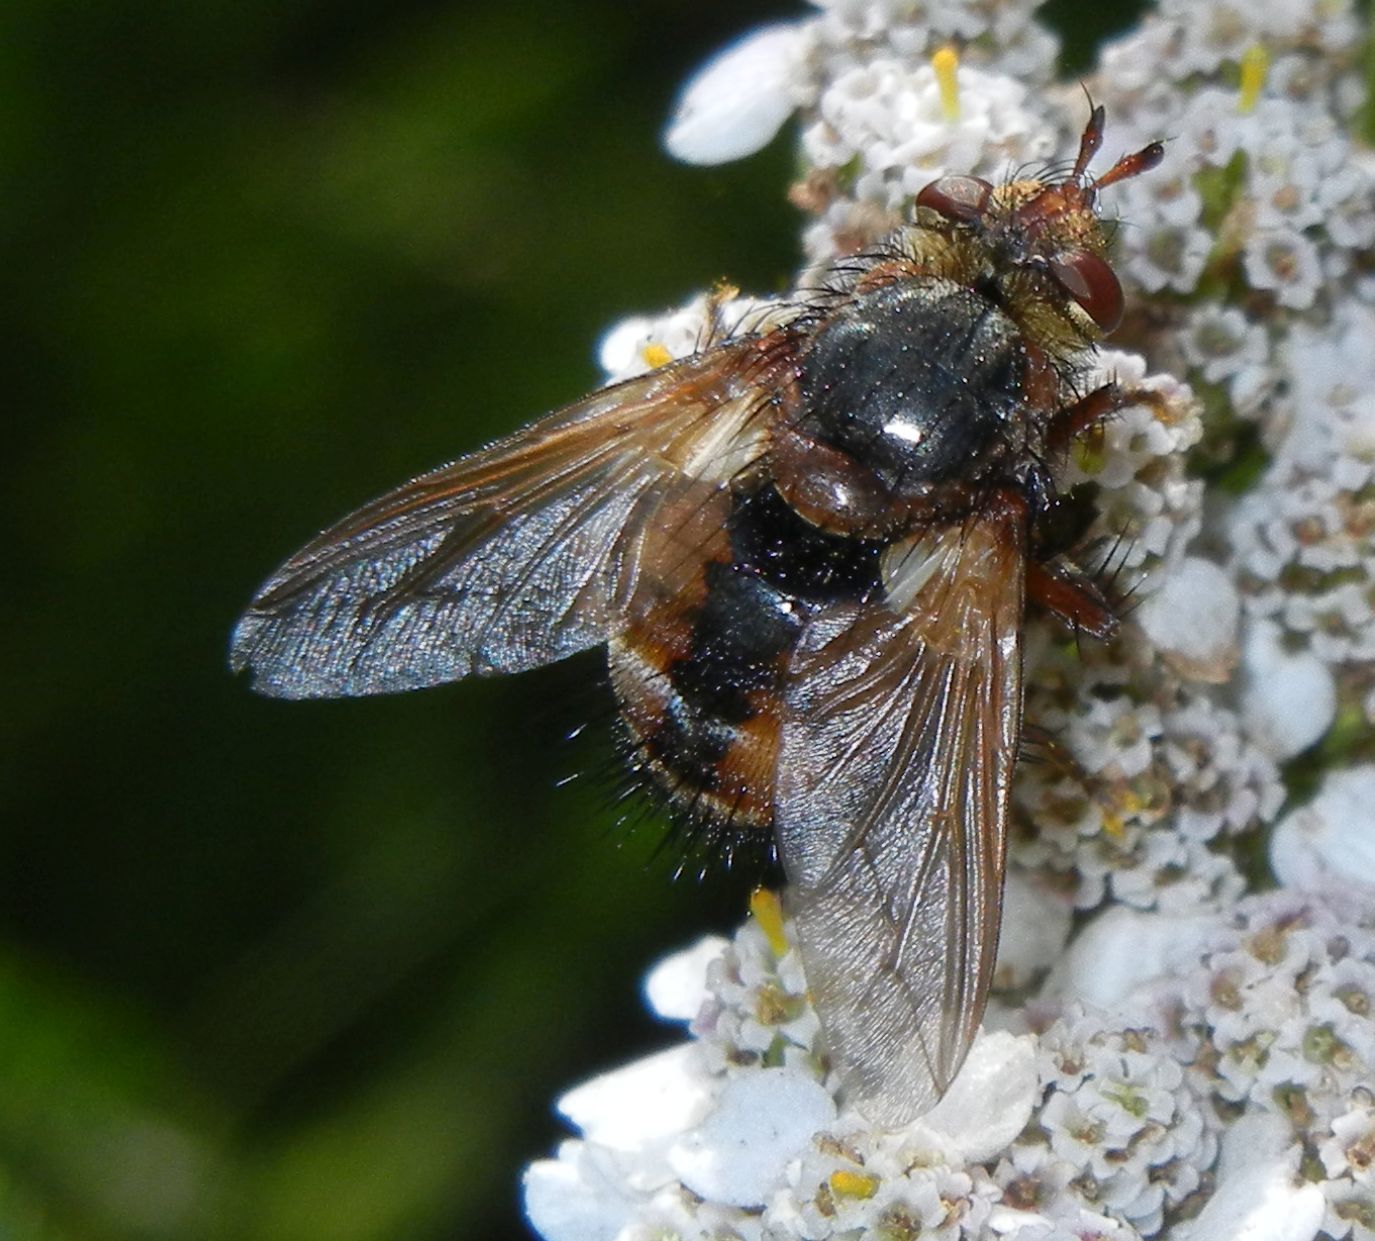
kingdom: Animalia
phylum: Arthropoda
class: Insecta
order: Diptera
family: Tachinidae
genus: Tachina
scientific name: Tachina fera
